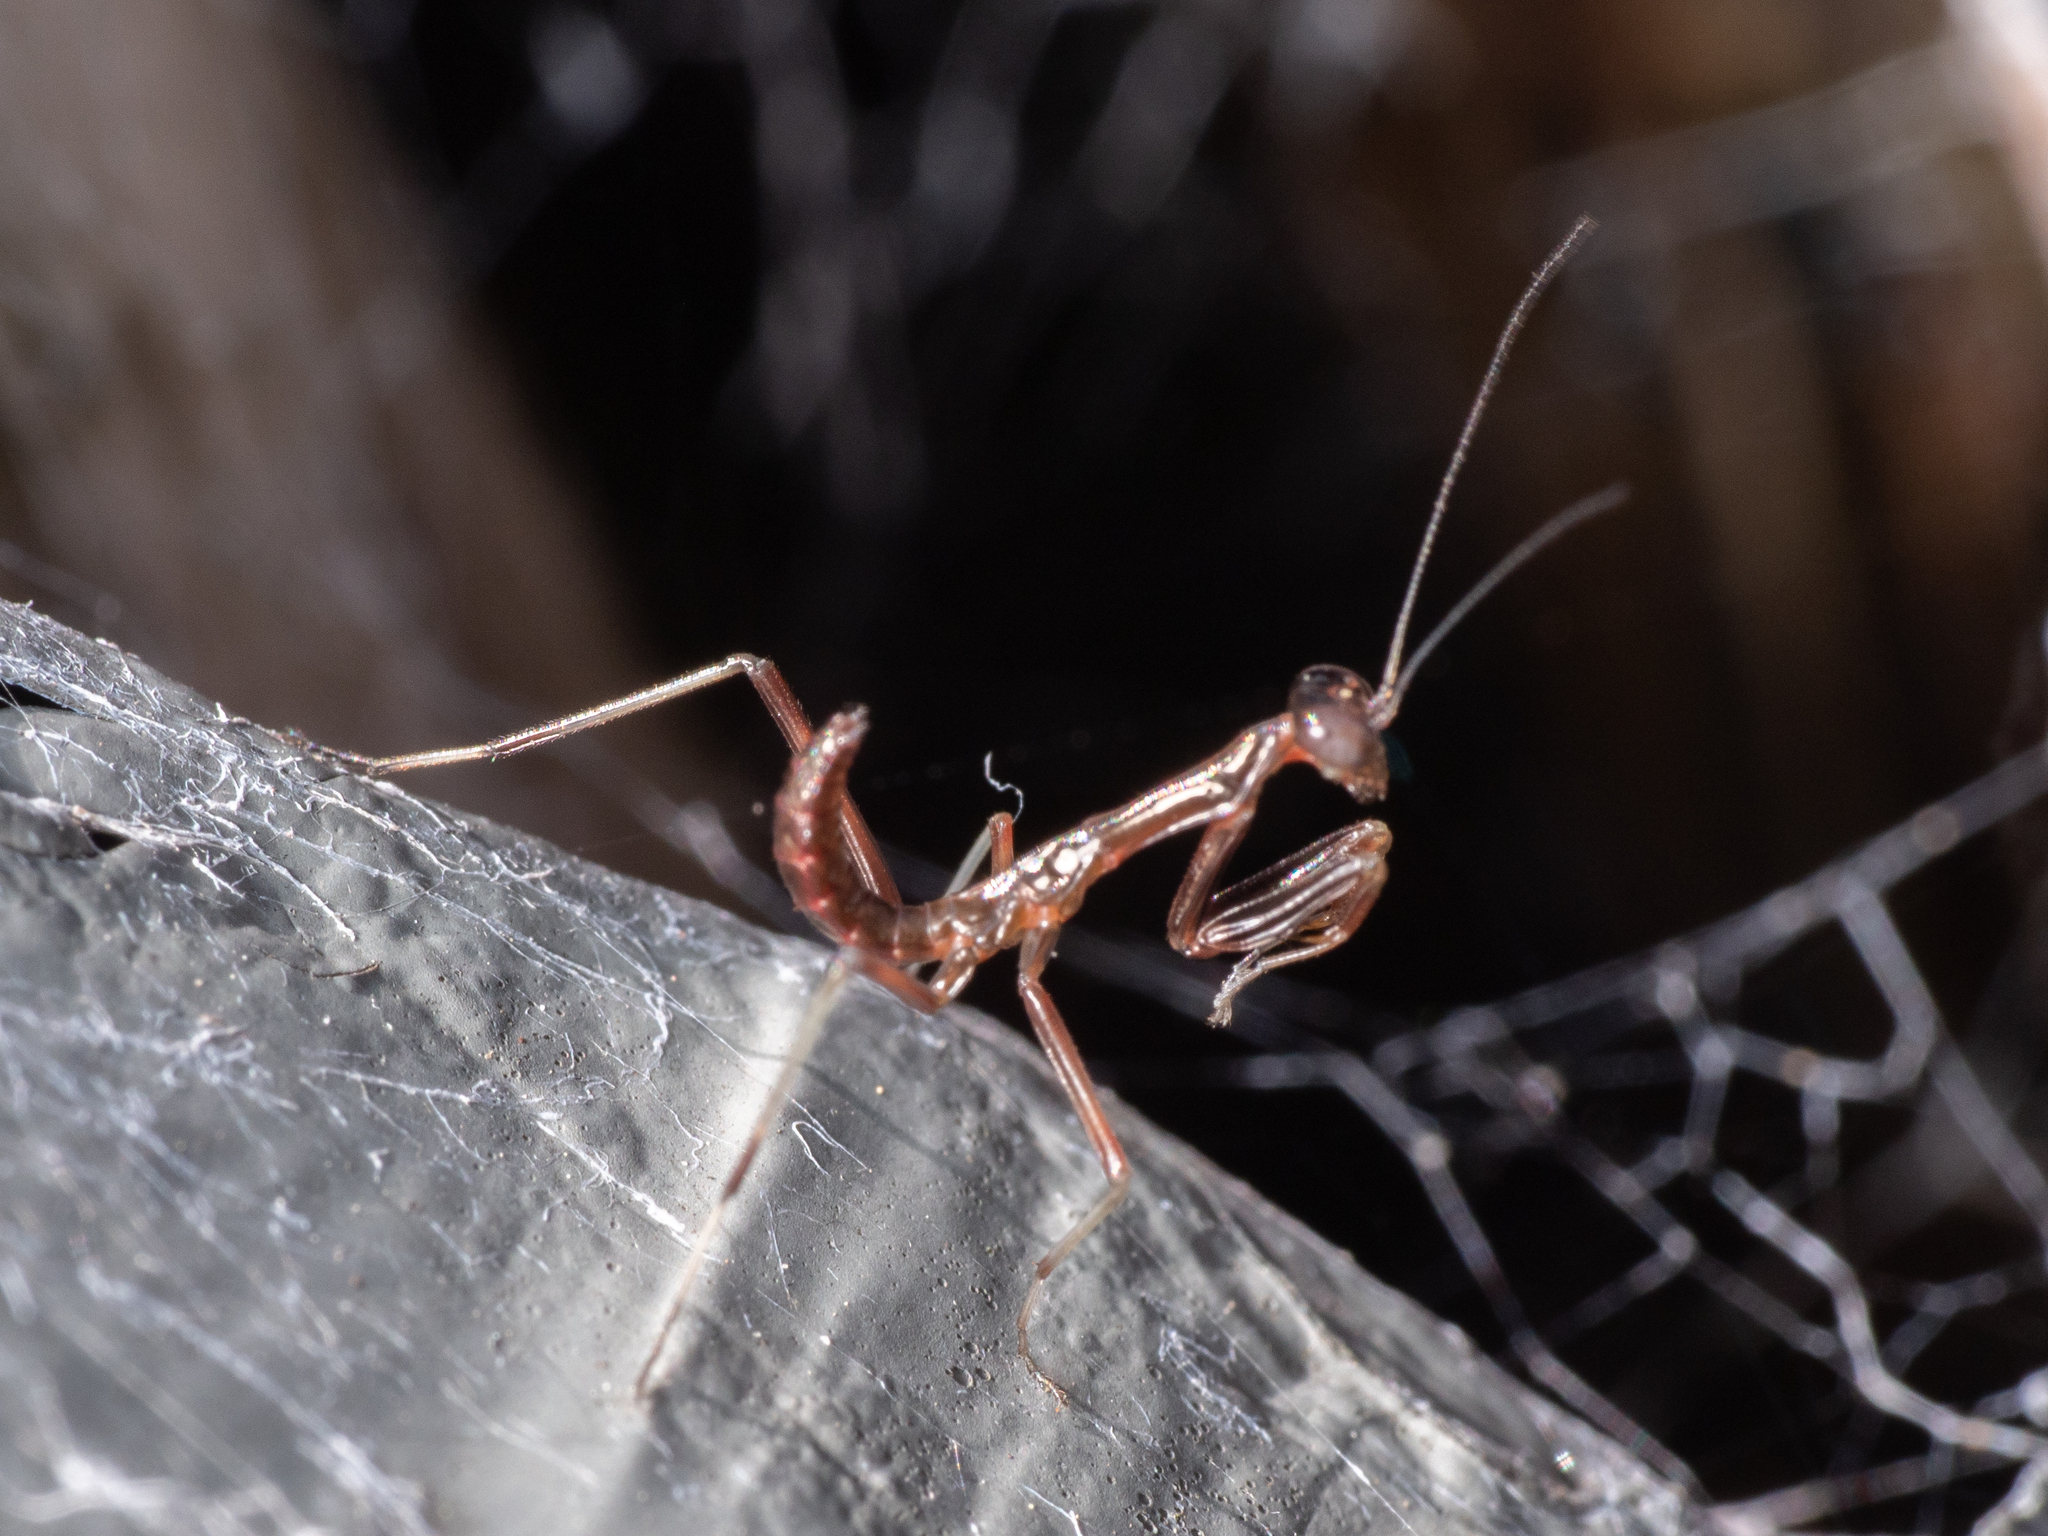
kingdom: Animalia
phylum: Arthropoda
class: Insecta
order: Mantodea
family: Mantidae
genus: Pseudomantis
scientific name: Pseudomantis albofimbriata
